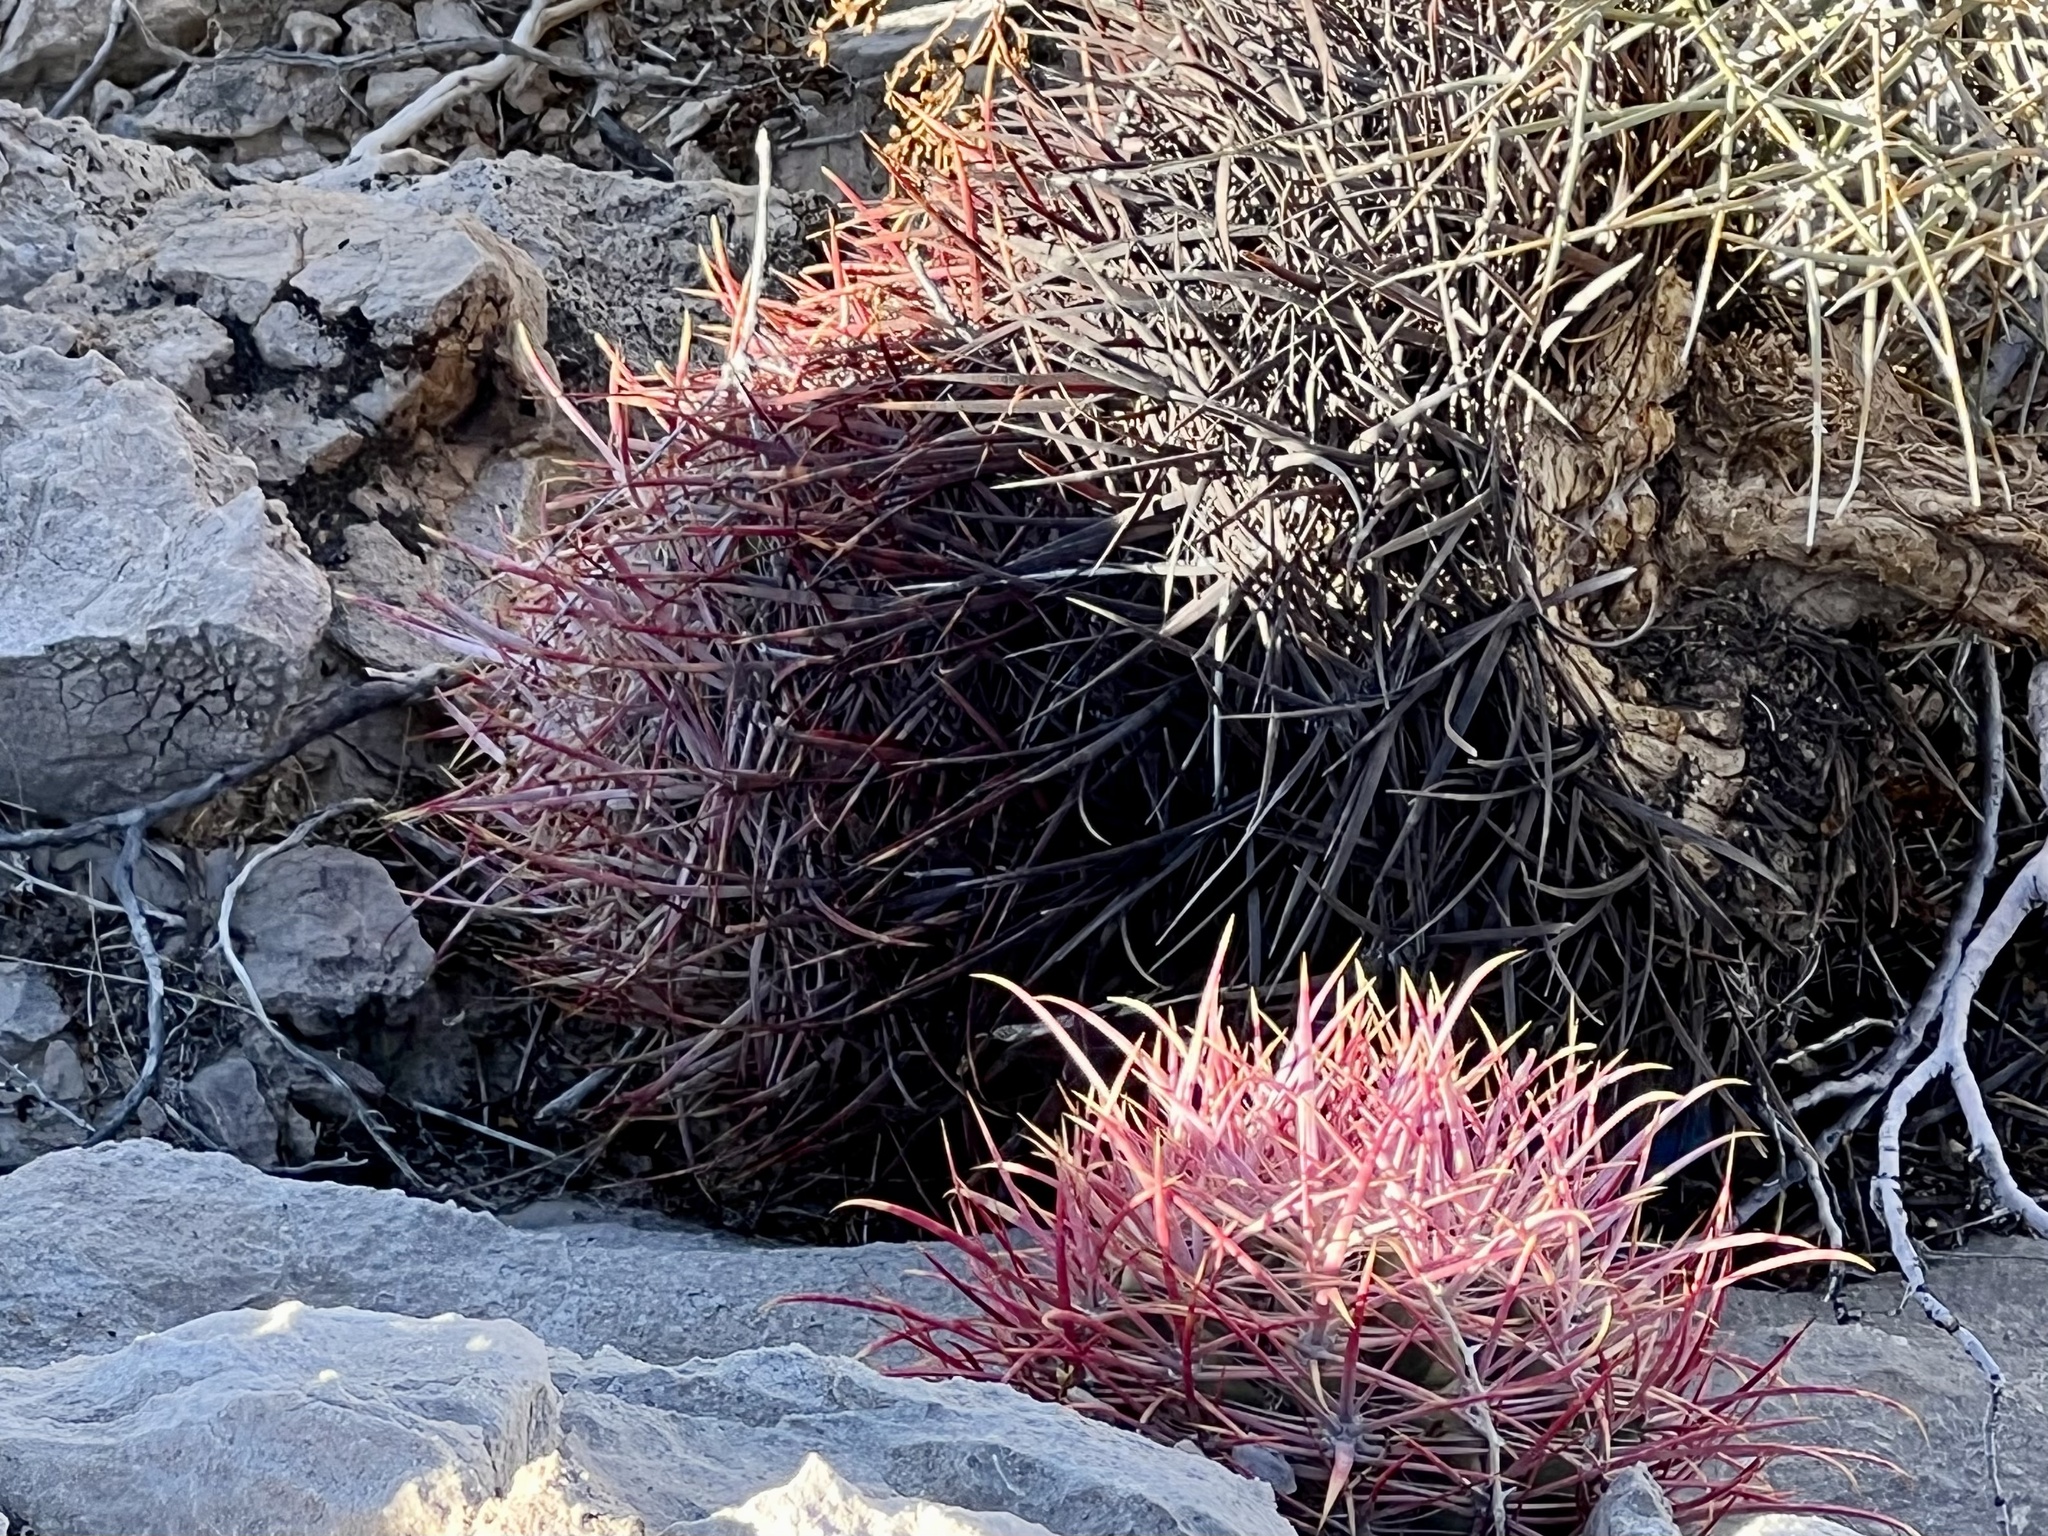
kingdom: Plantae
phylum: Tracheophyta
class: Magnoliopsida
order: Caryophyllales
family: Cactaceae
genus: Ferocactus
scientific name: Ferocactus cylindraceus
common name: California barrel cactus
